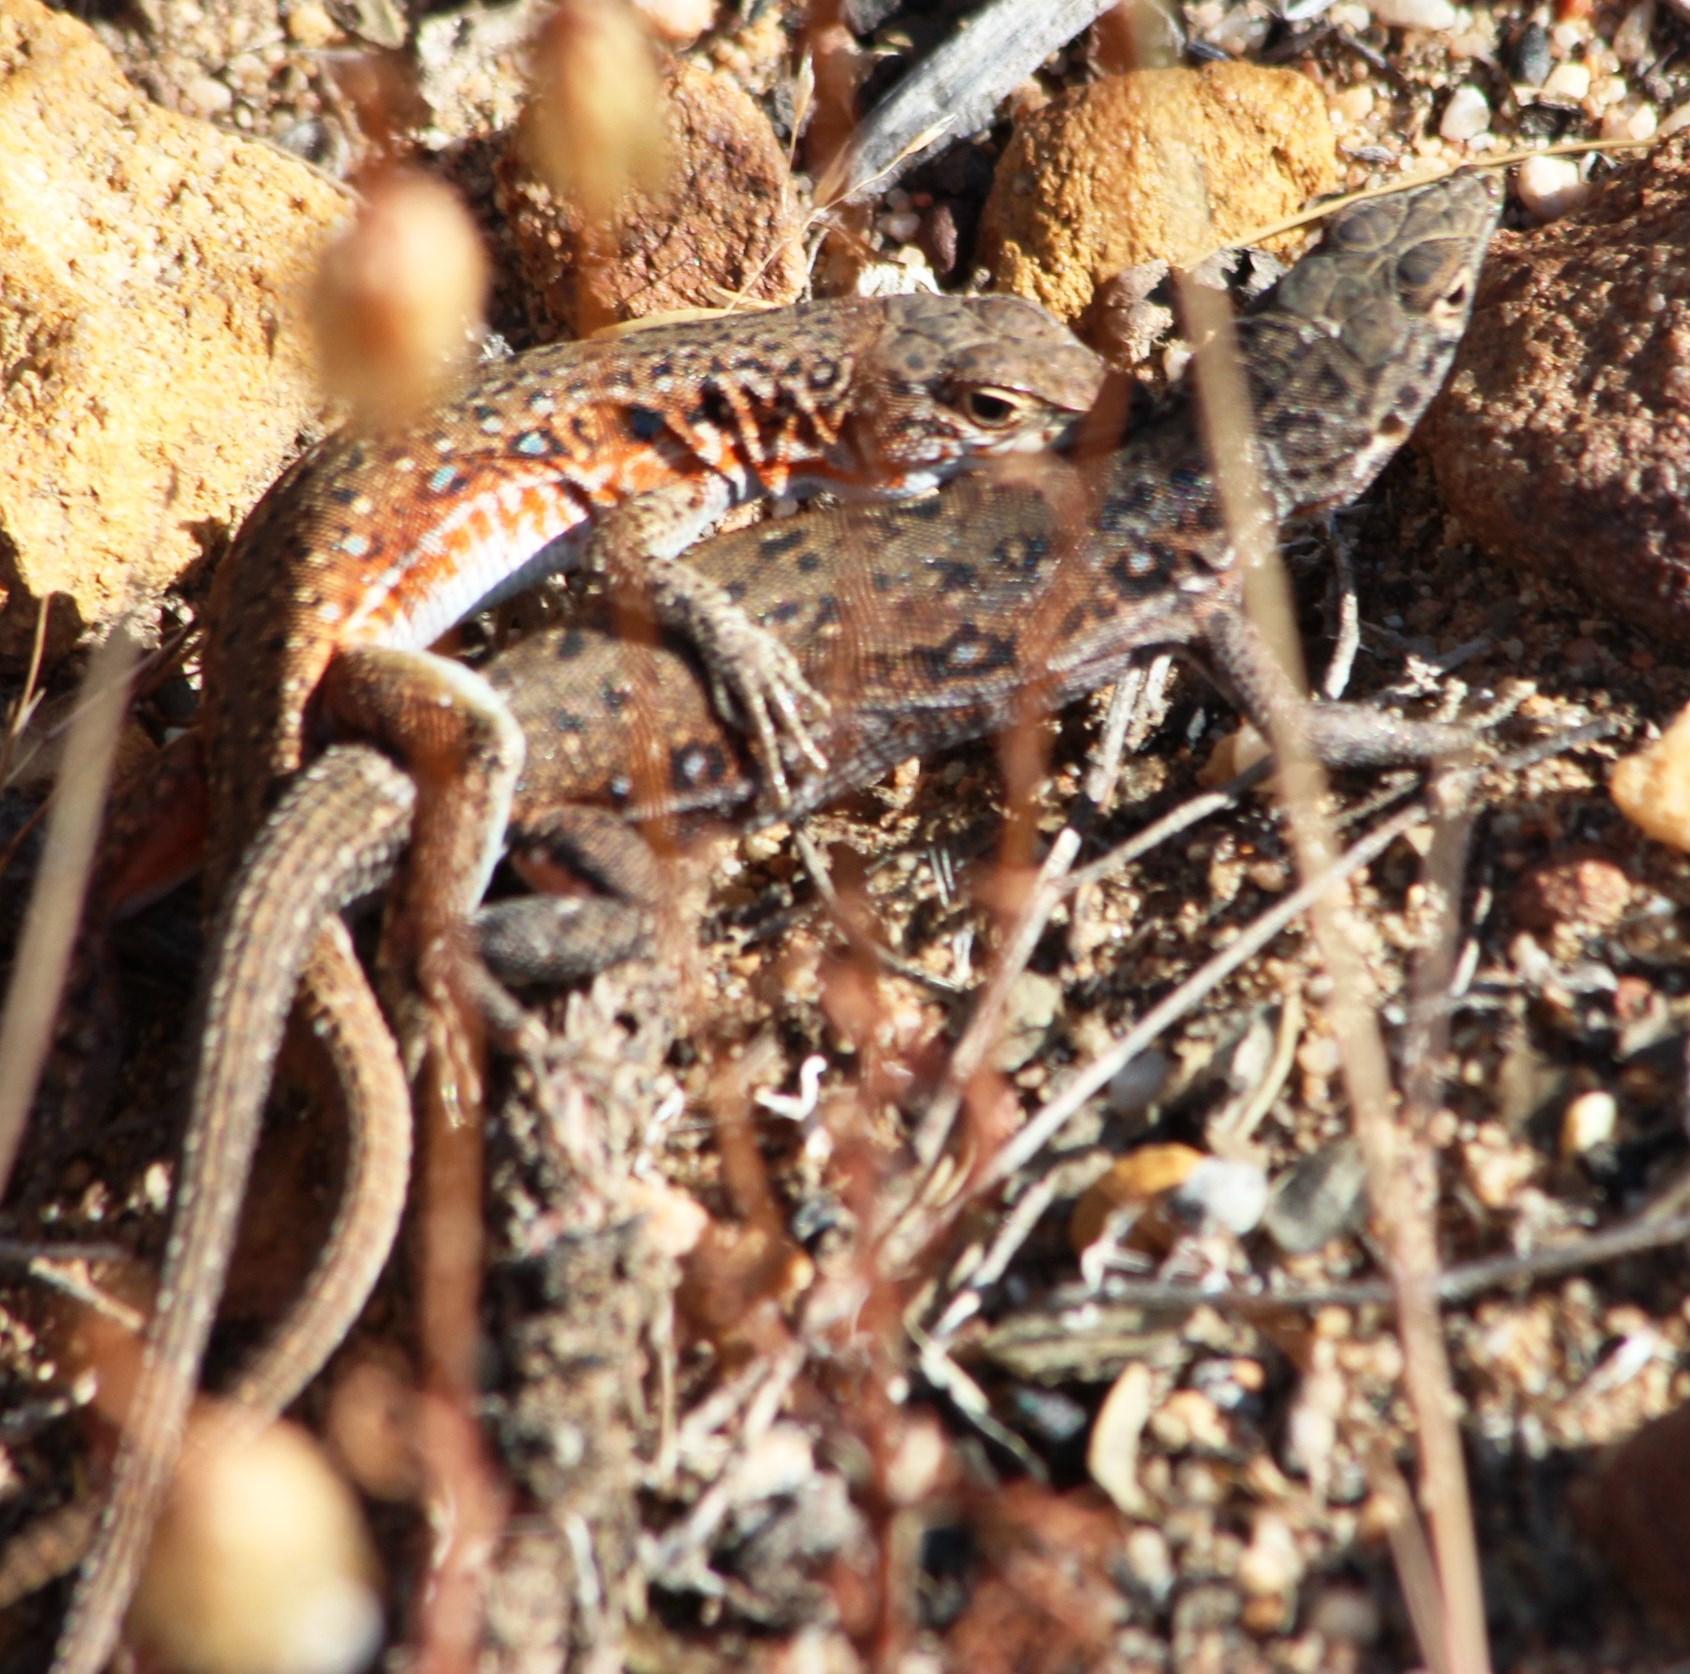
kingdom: Animalia
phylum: Chordata
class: Squamata
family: Lacertidae
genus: Pedioplanis
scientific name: Pedioplanis lineoocellata
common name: Spotted sand lizard
